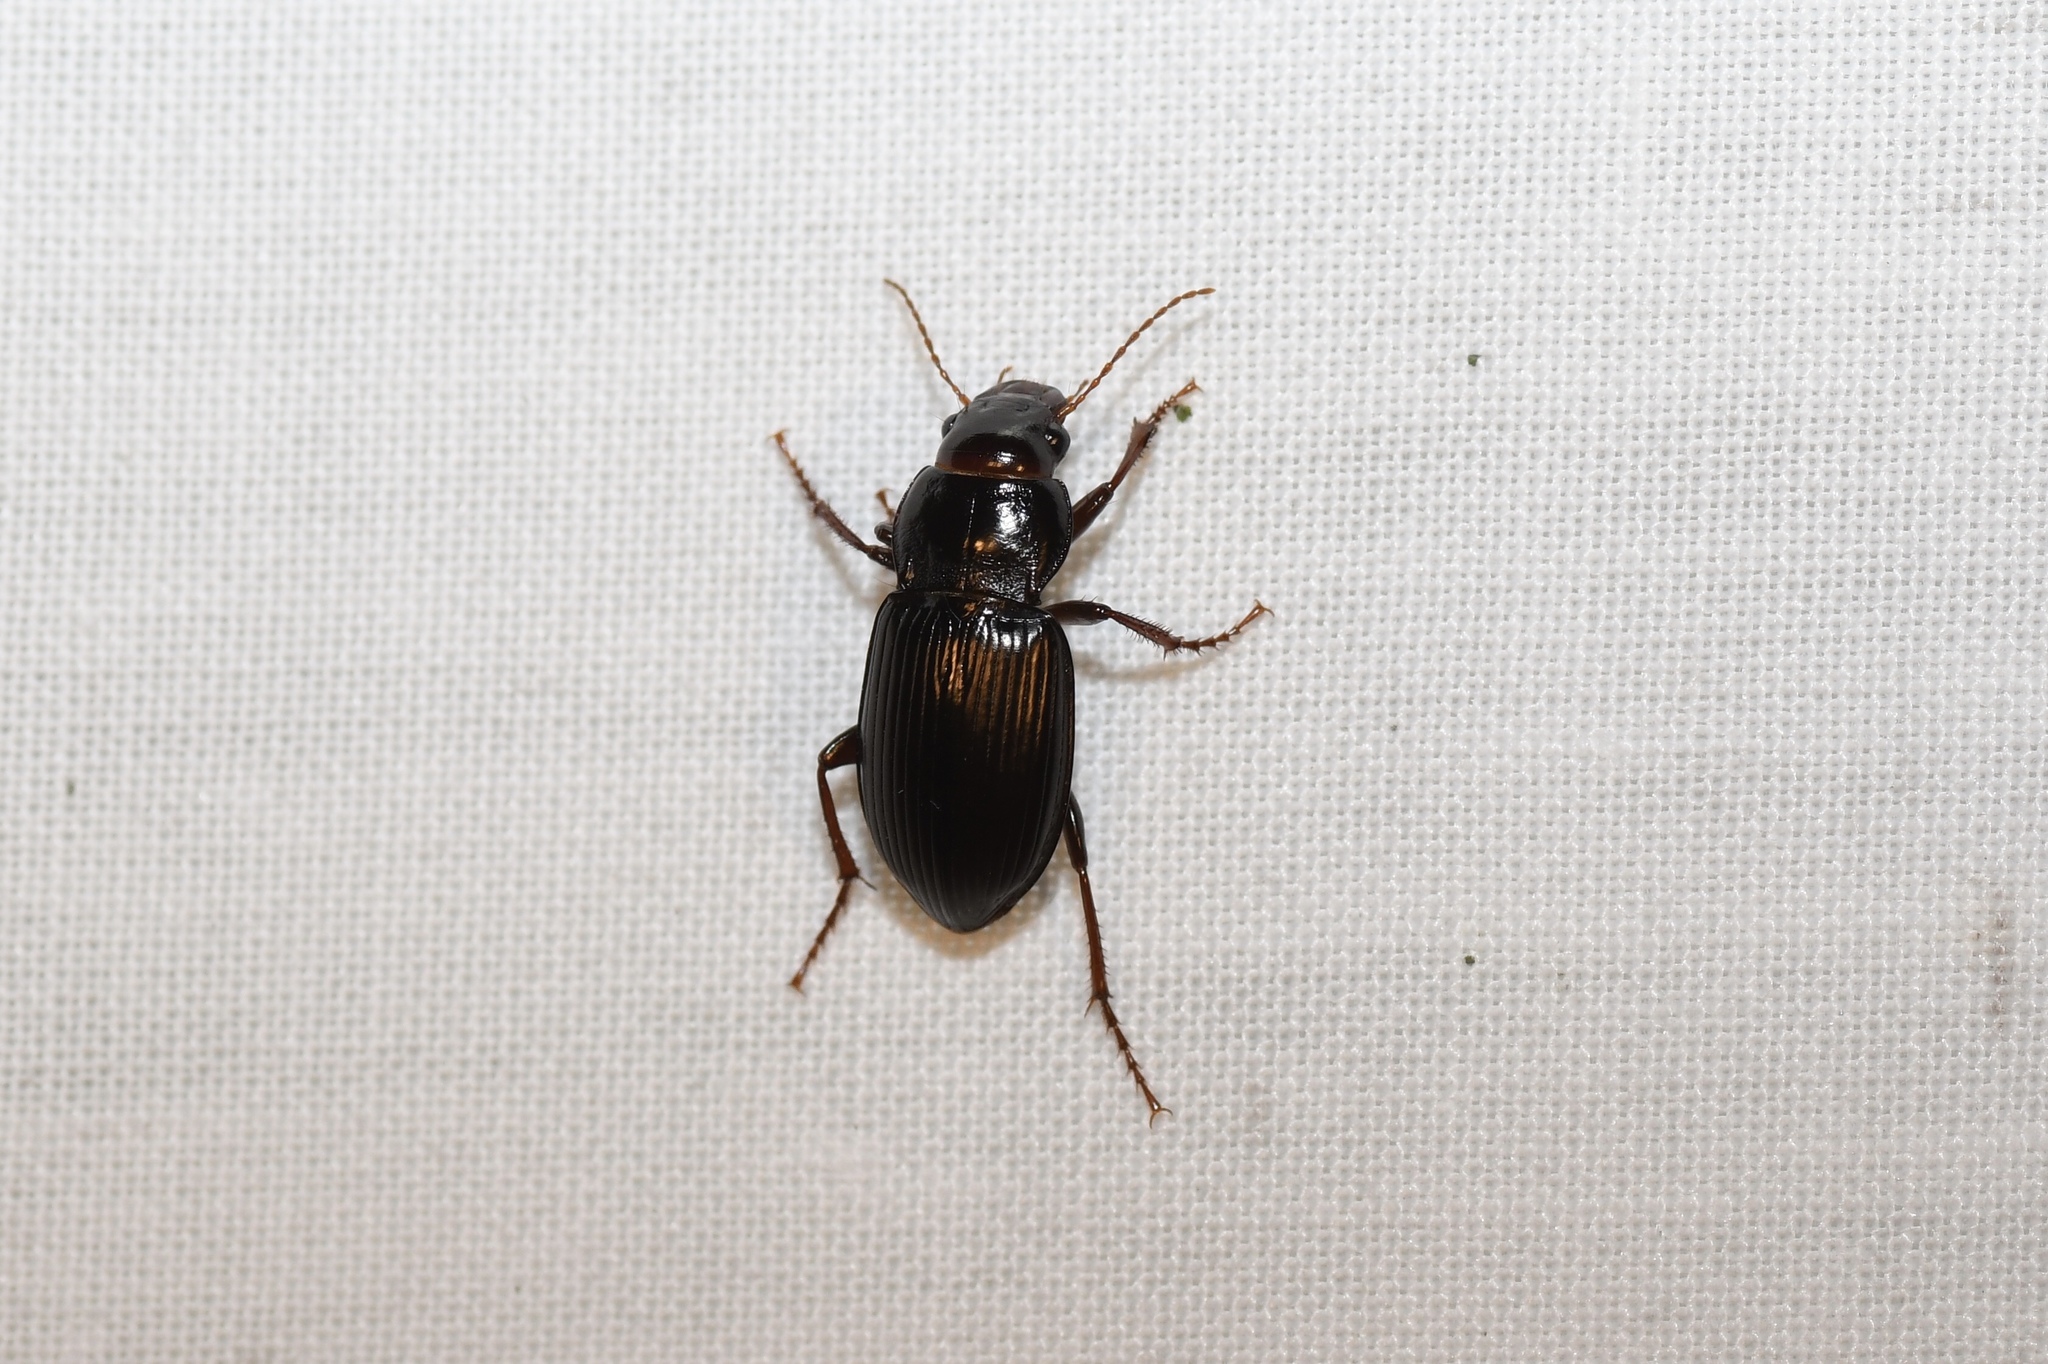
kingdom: Animalia
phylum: Arthropoda
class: Insecta
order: Coleoptera
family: Carabidae
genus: Amara
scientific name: Amara aulica
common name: Princely harp ground beetle
